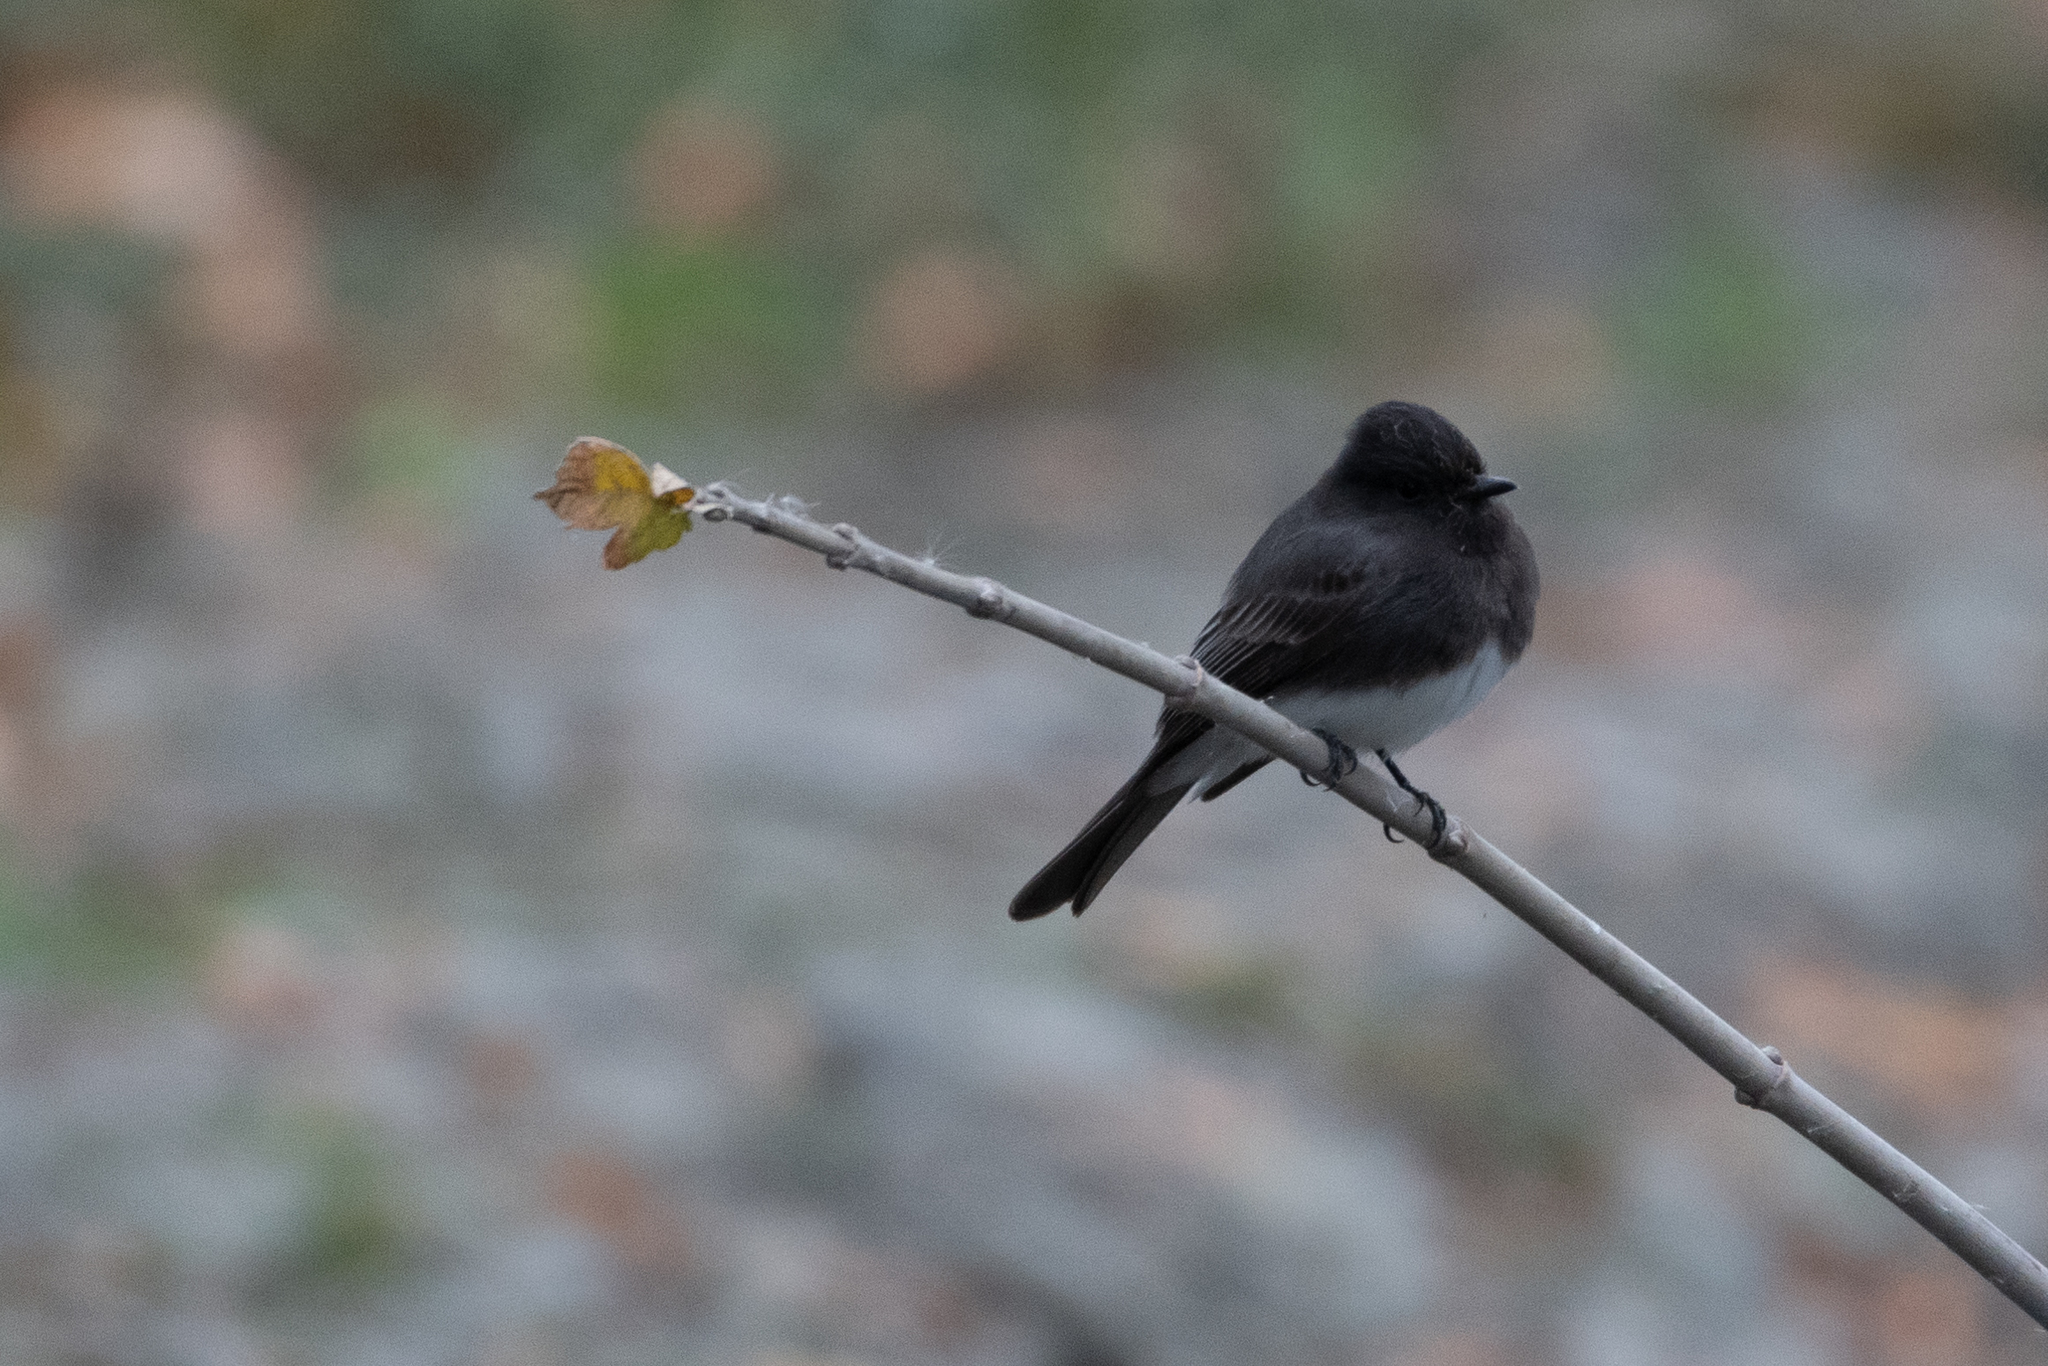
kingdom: Animalia
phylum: Chordata
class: Aves
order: Passeriformes
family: Tyrannidae
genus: Sayornis
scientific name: Sayornis nigricans
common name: Black phoebe
